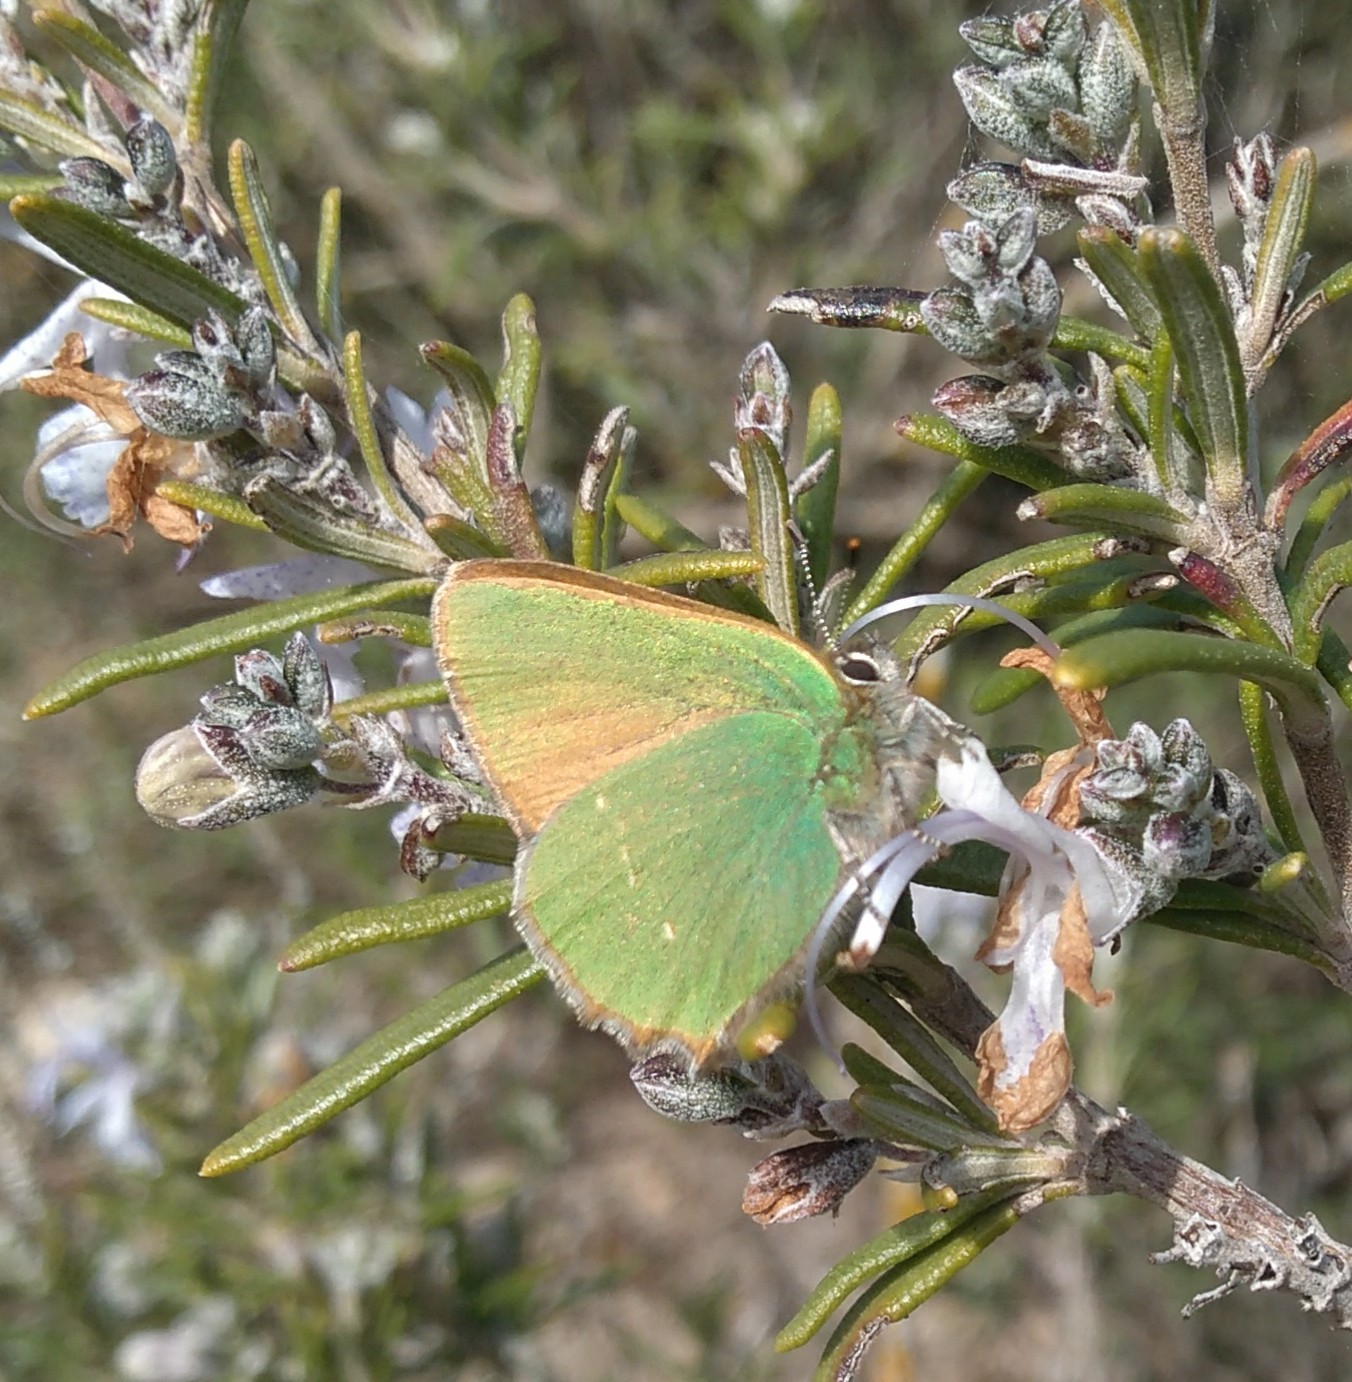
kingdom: Animalia
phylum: Arthropoda
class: Insecta
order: Lepidoptera
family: Lycaenidae
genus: Callophrys
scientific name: Callophrys rubi
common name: Green hairstreak
